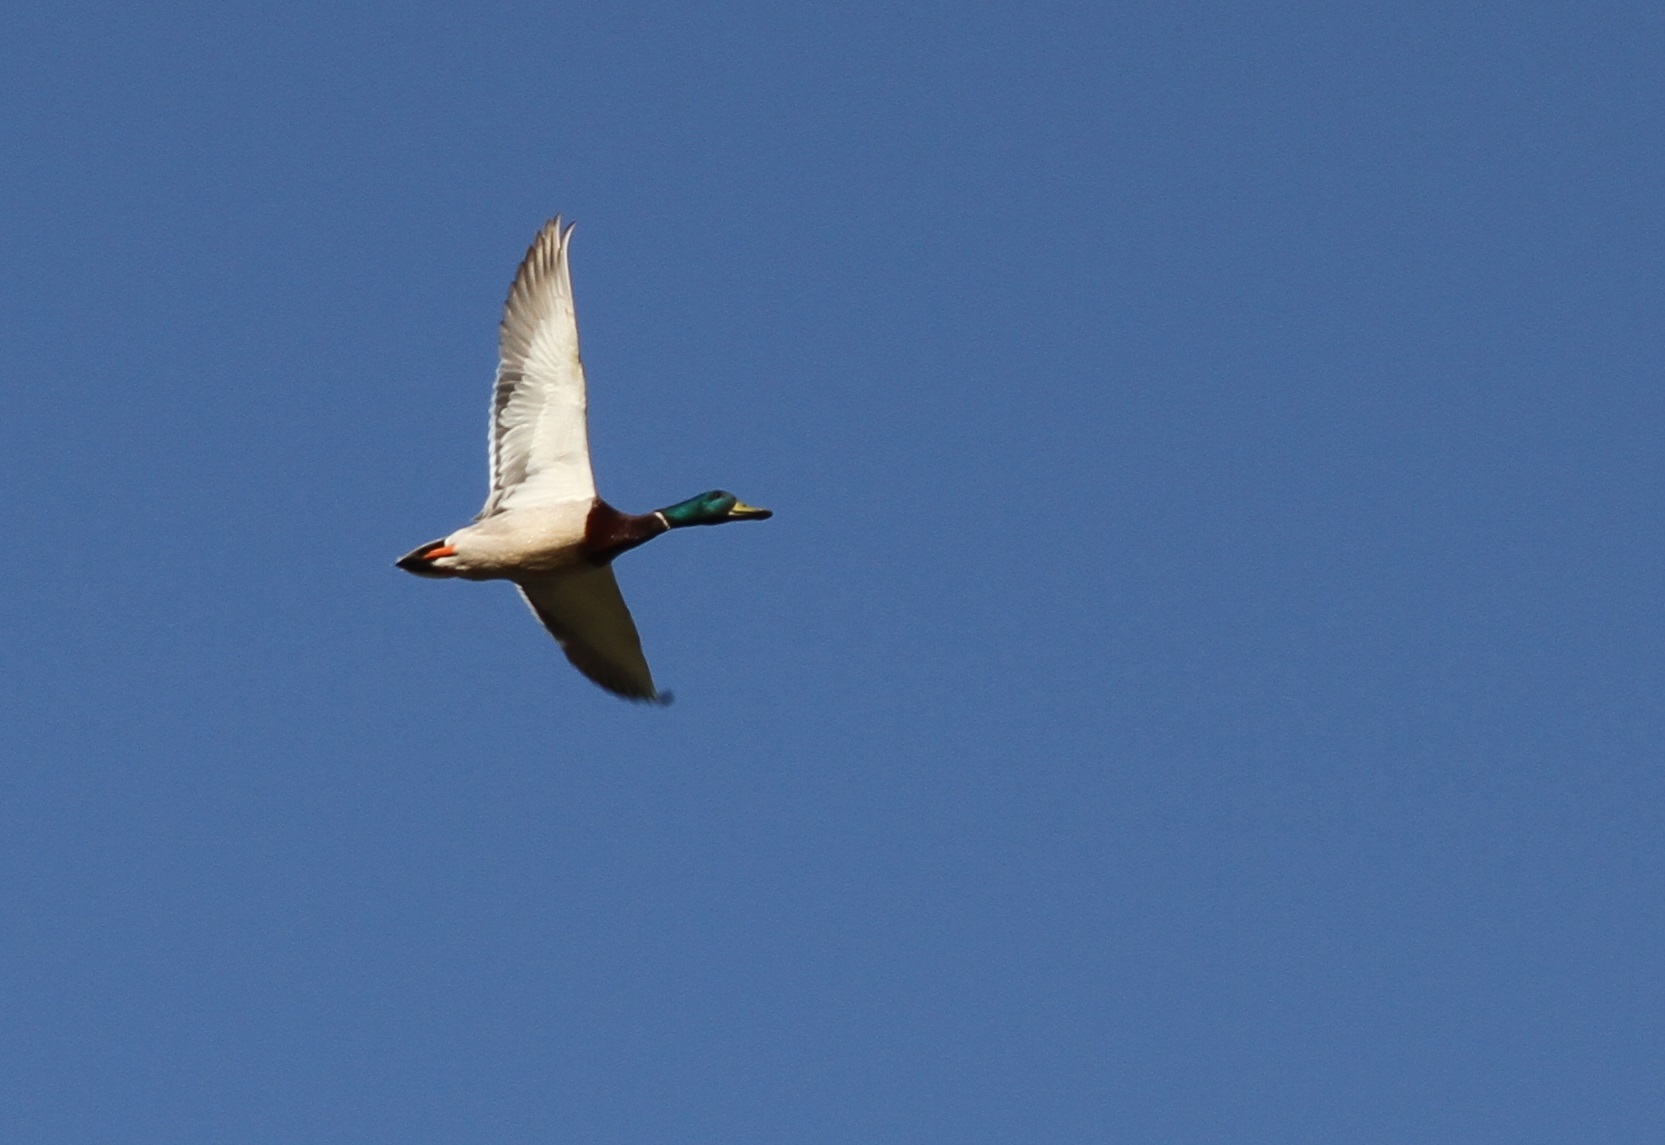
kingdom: Animalia
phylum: Chordata
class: Aves
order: Anseriformes
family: Anatidae
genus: Anas
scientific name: Anas platyrhynchos
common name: Mallard
